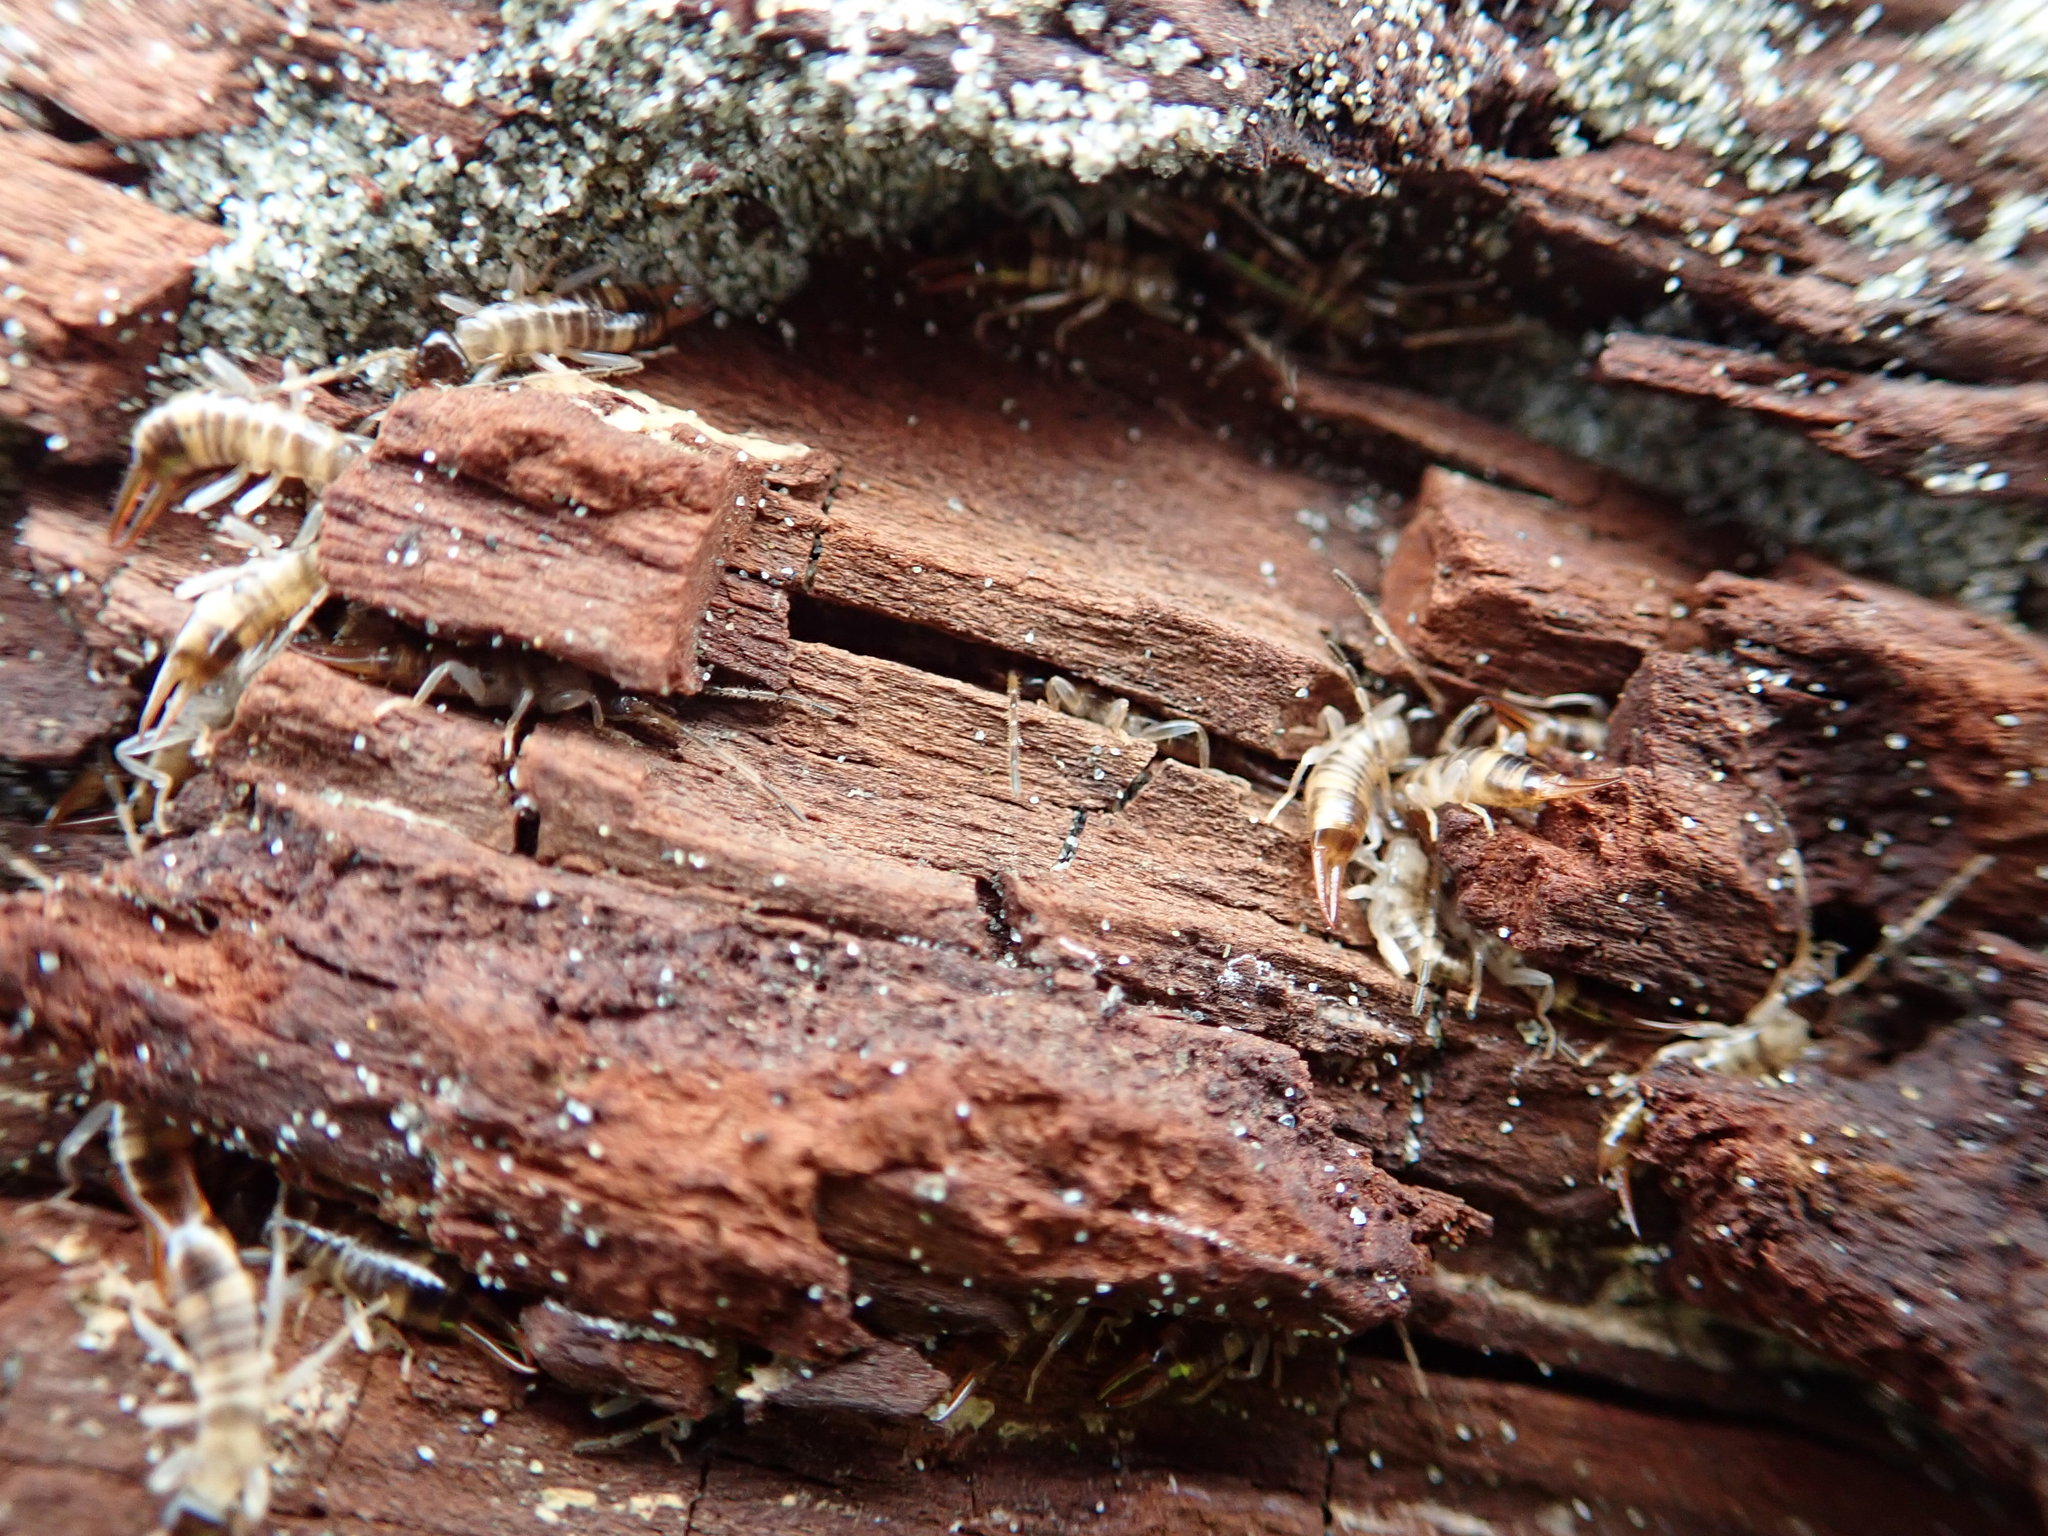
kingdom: Animalia
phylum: Arthropoda
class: Insecta
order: Dermaptera
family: Anisolabididae
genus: Anisolabis
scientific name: Anisolabis littorea
